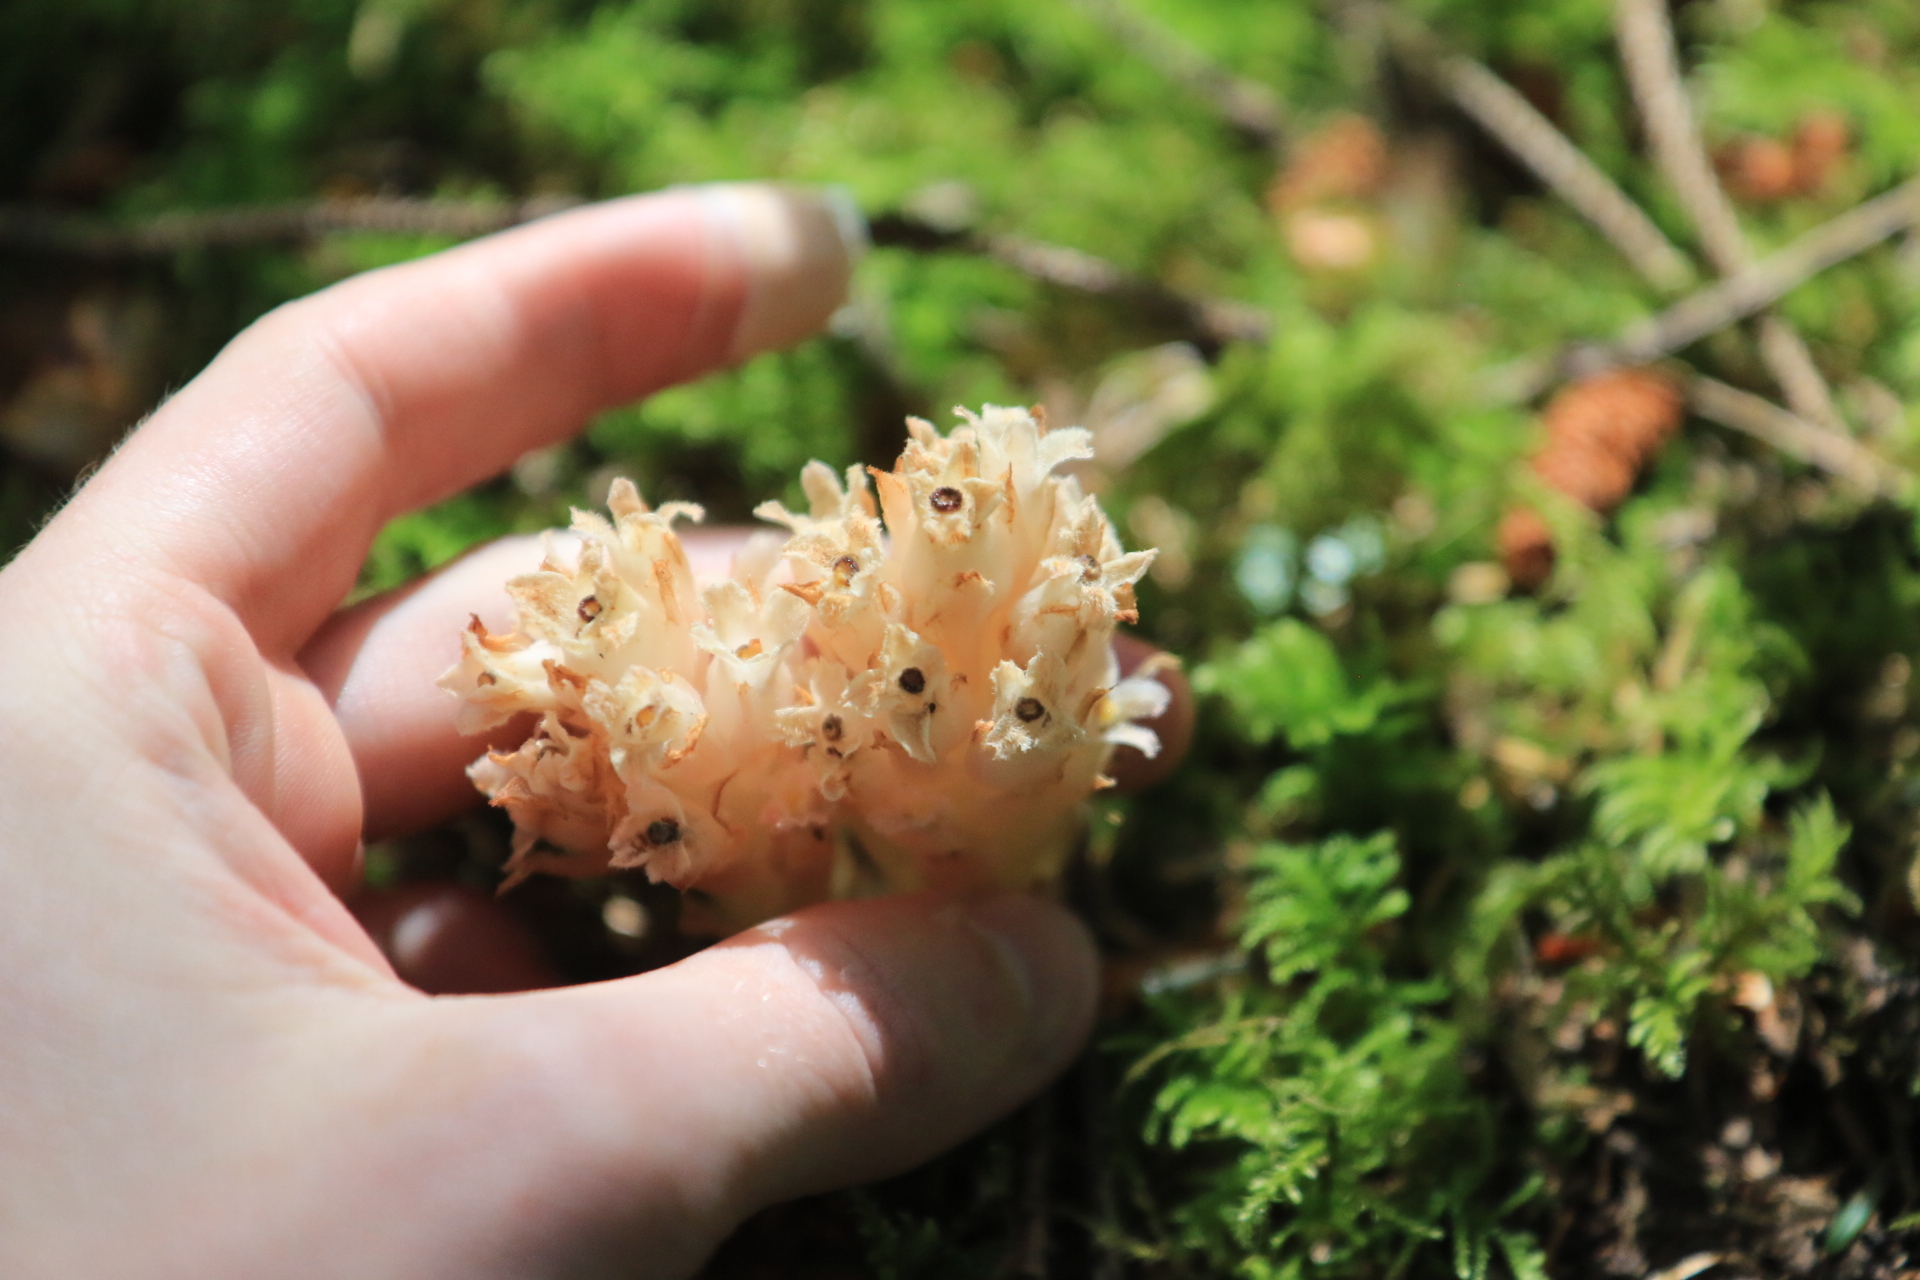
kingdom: Plantae
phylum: Tracheophyta
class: Magnoliopsida
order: Ericales
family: Ericaceae
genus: Hemitomes
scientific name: Hemitomes congestum
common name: Cone plant
